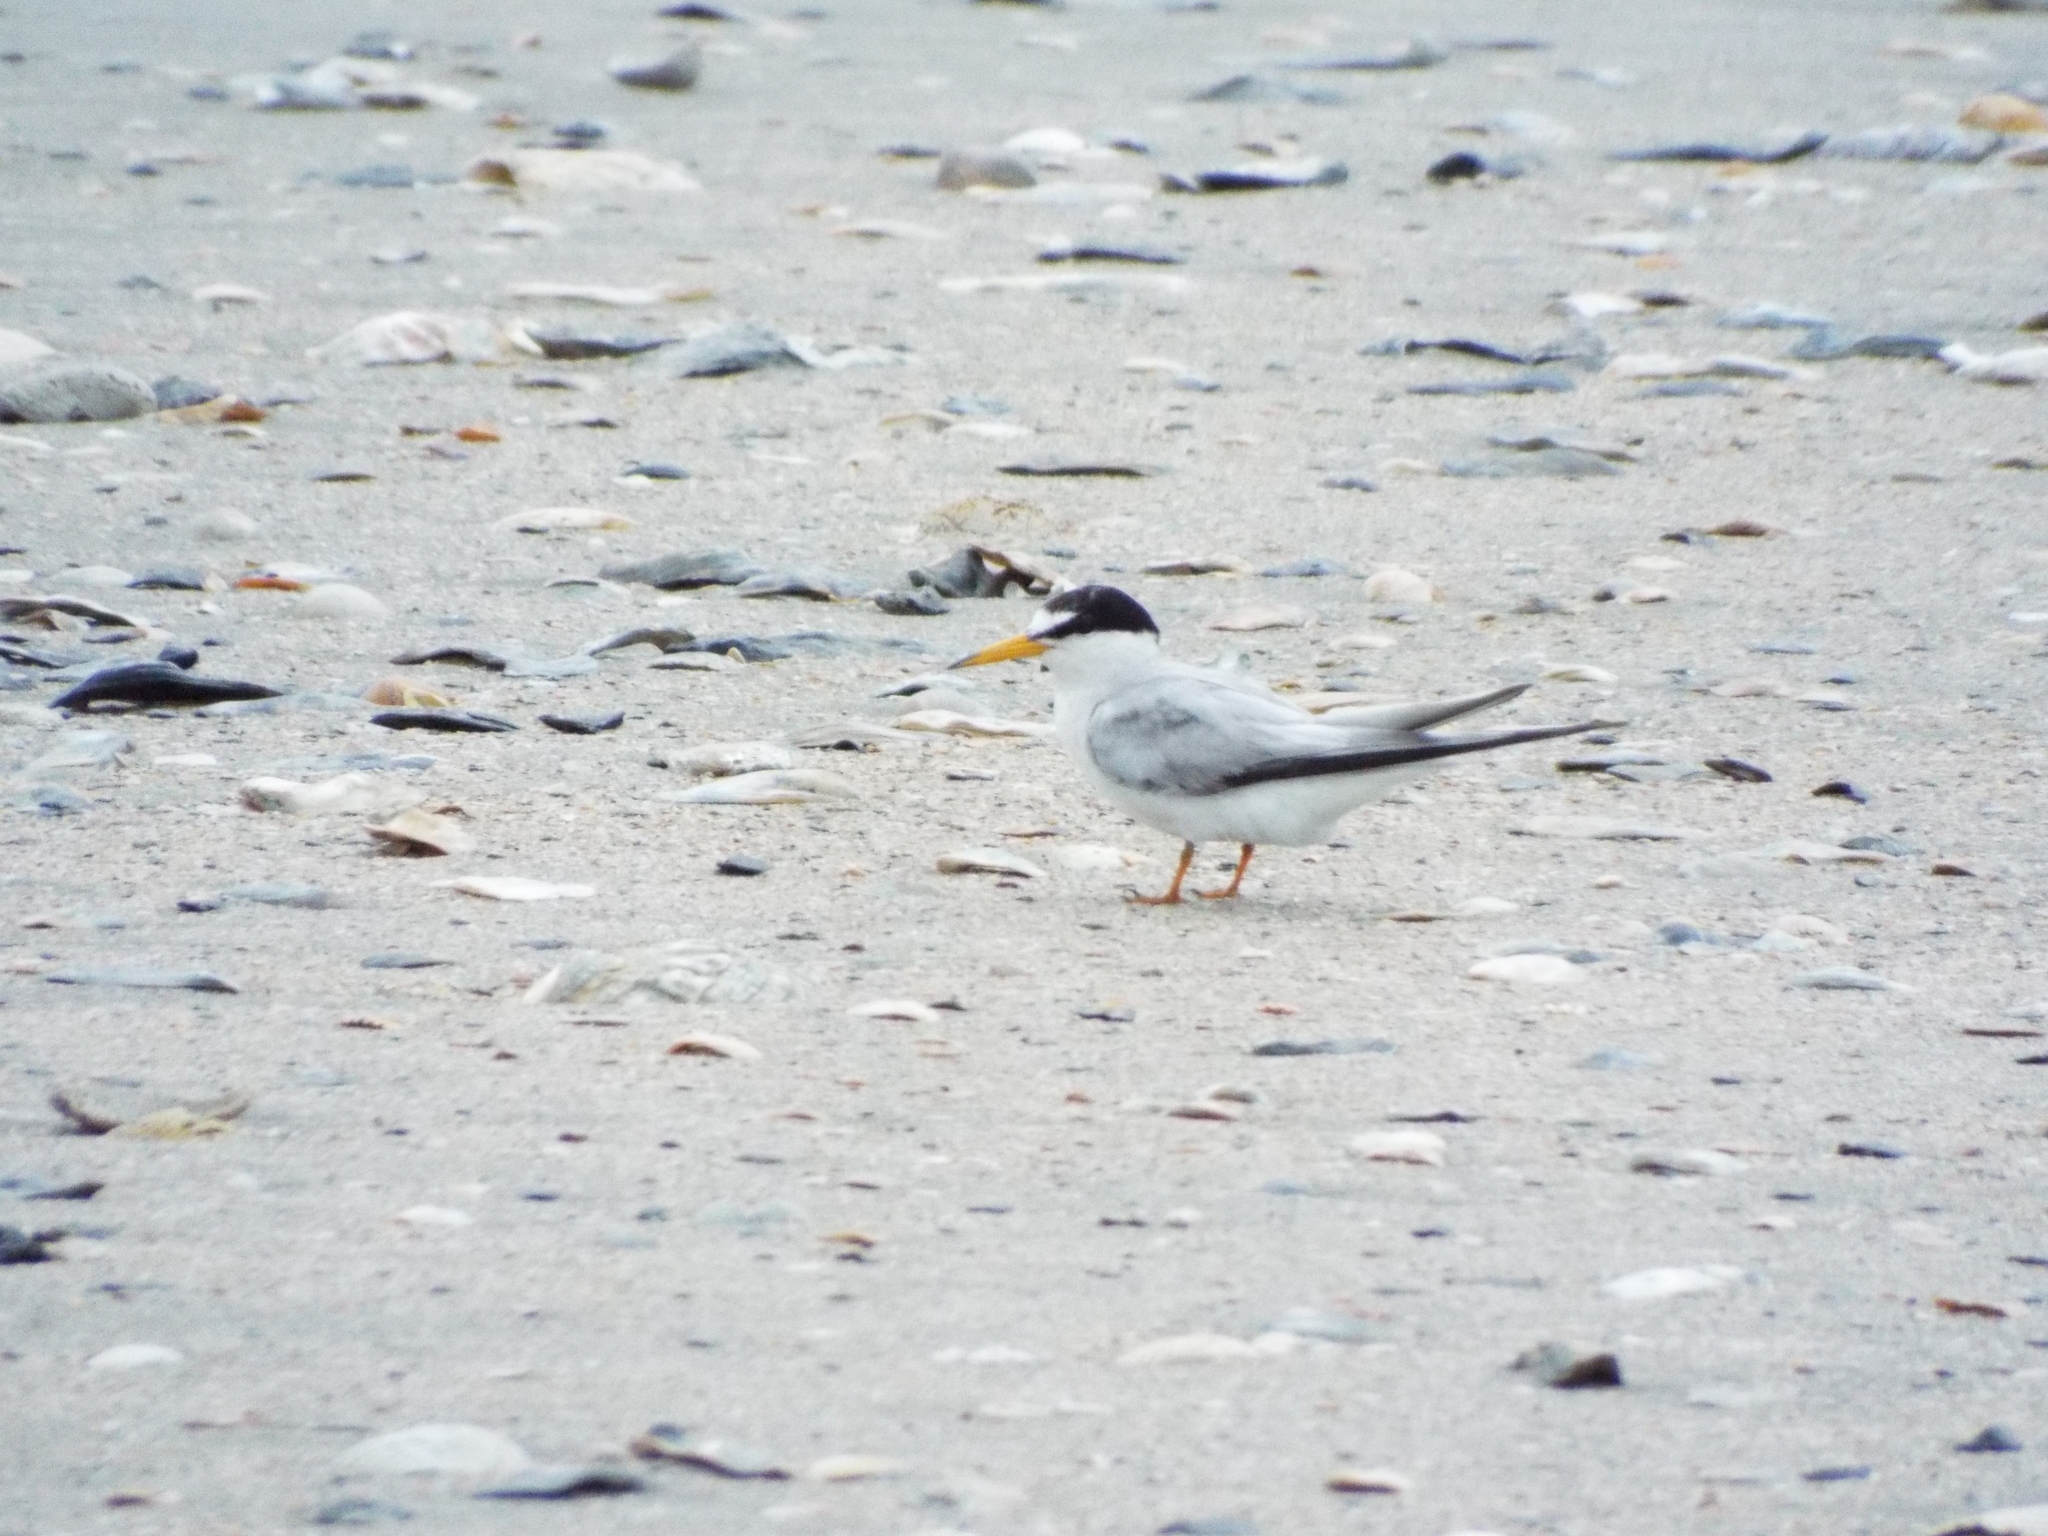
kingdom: Animalia
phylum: Chordata
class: Aves
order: Charadriiformes
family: Laridae
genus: Sternula
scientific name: Sternula antillarum
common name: Least tern
